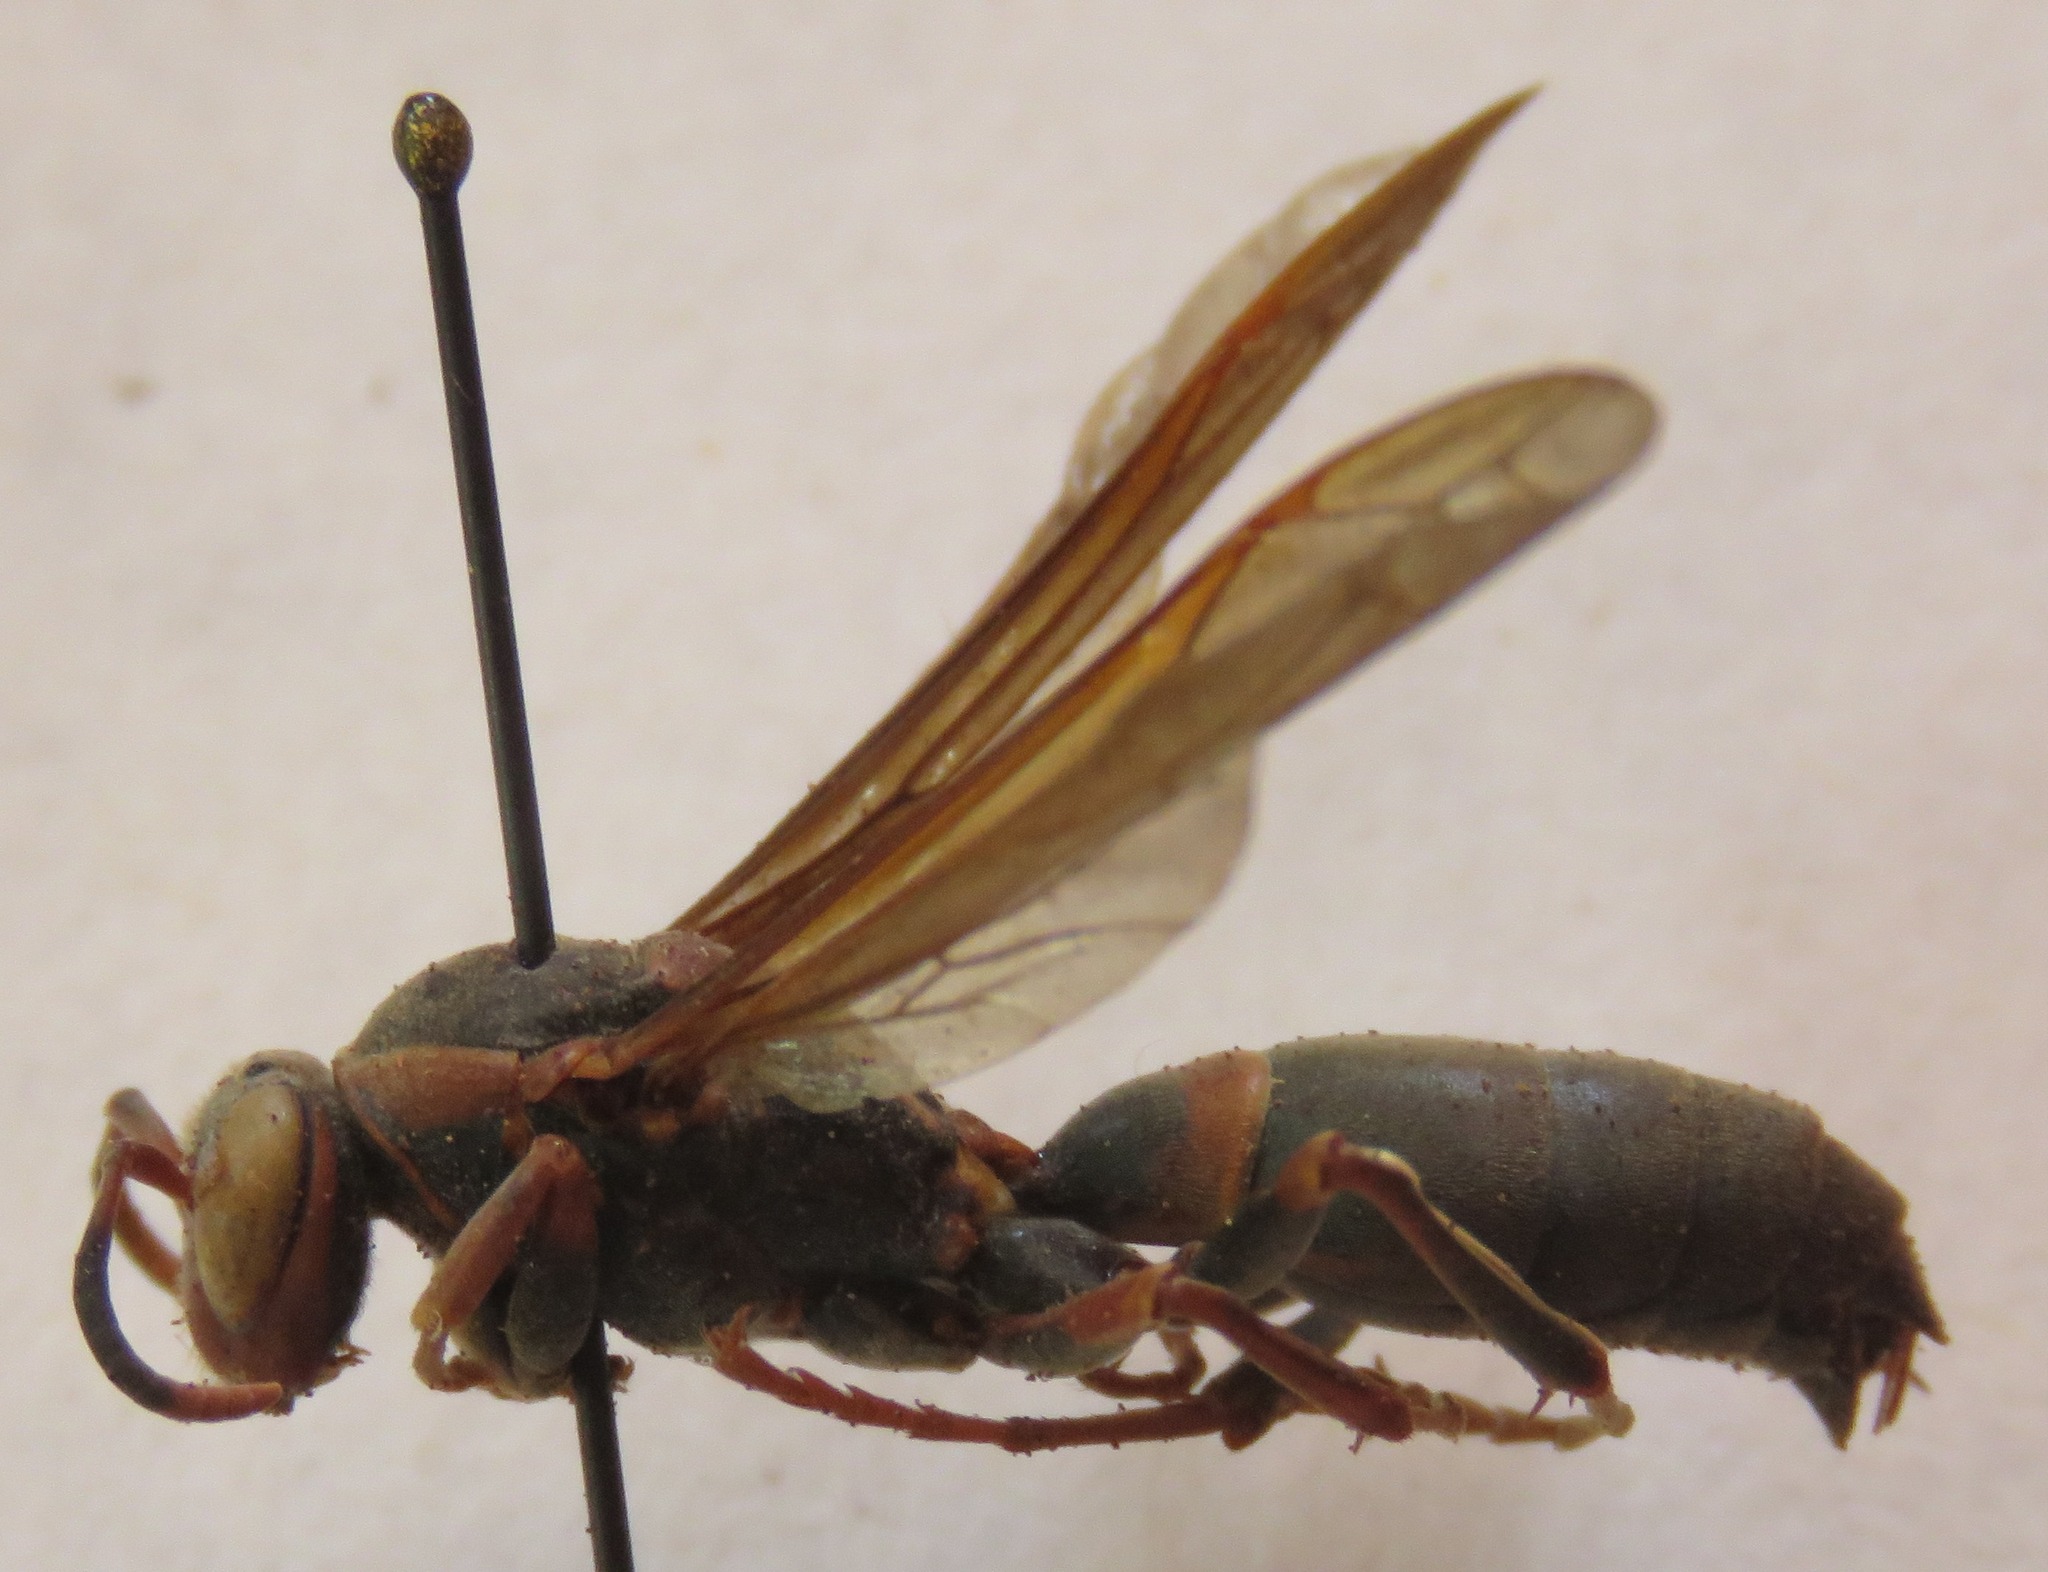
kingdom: Animalia
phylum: Arthropoda
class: Insecta
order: Hymenoptera
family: Eumenidae
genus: Polistes
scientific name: Polistes apicalis
